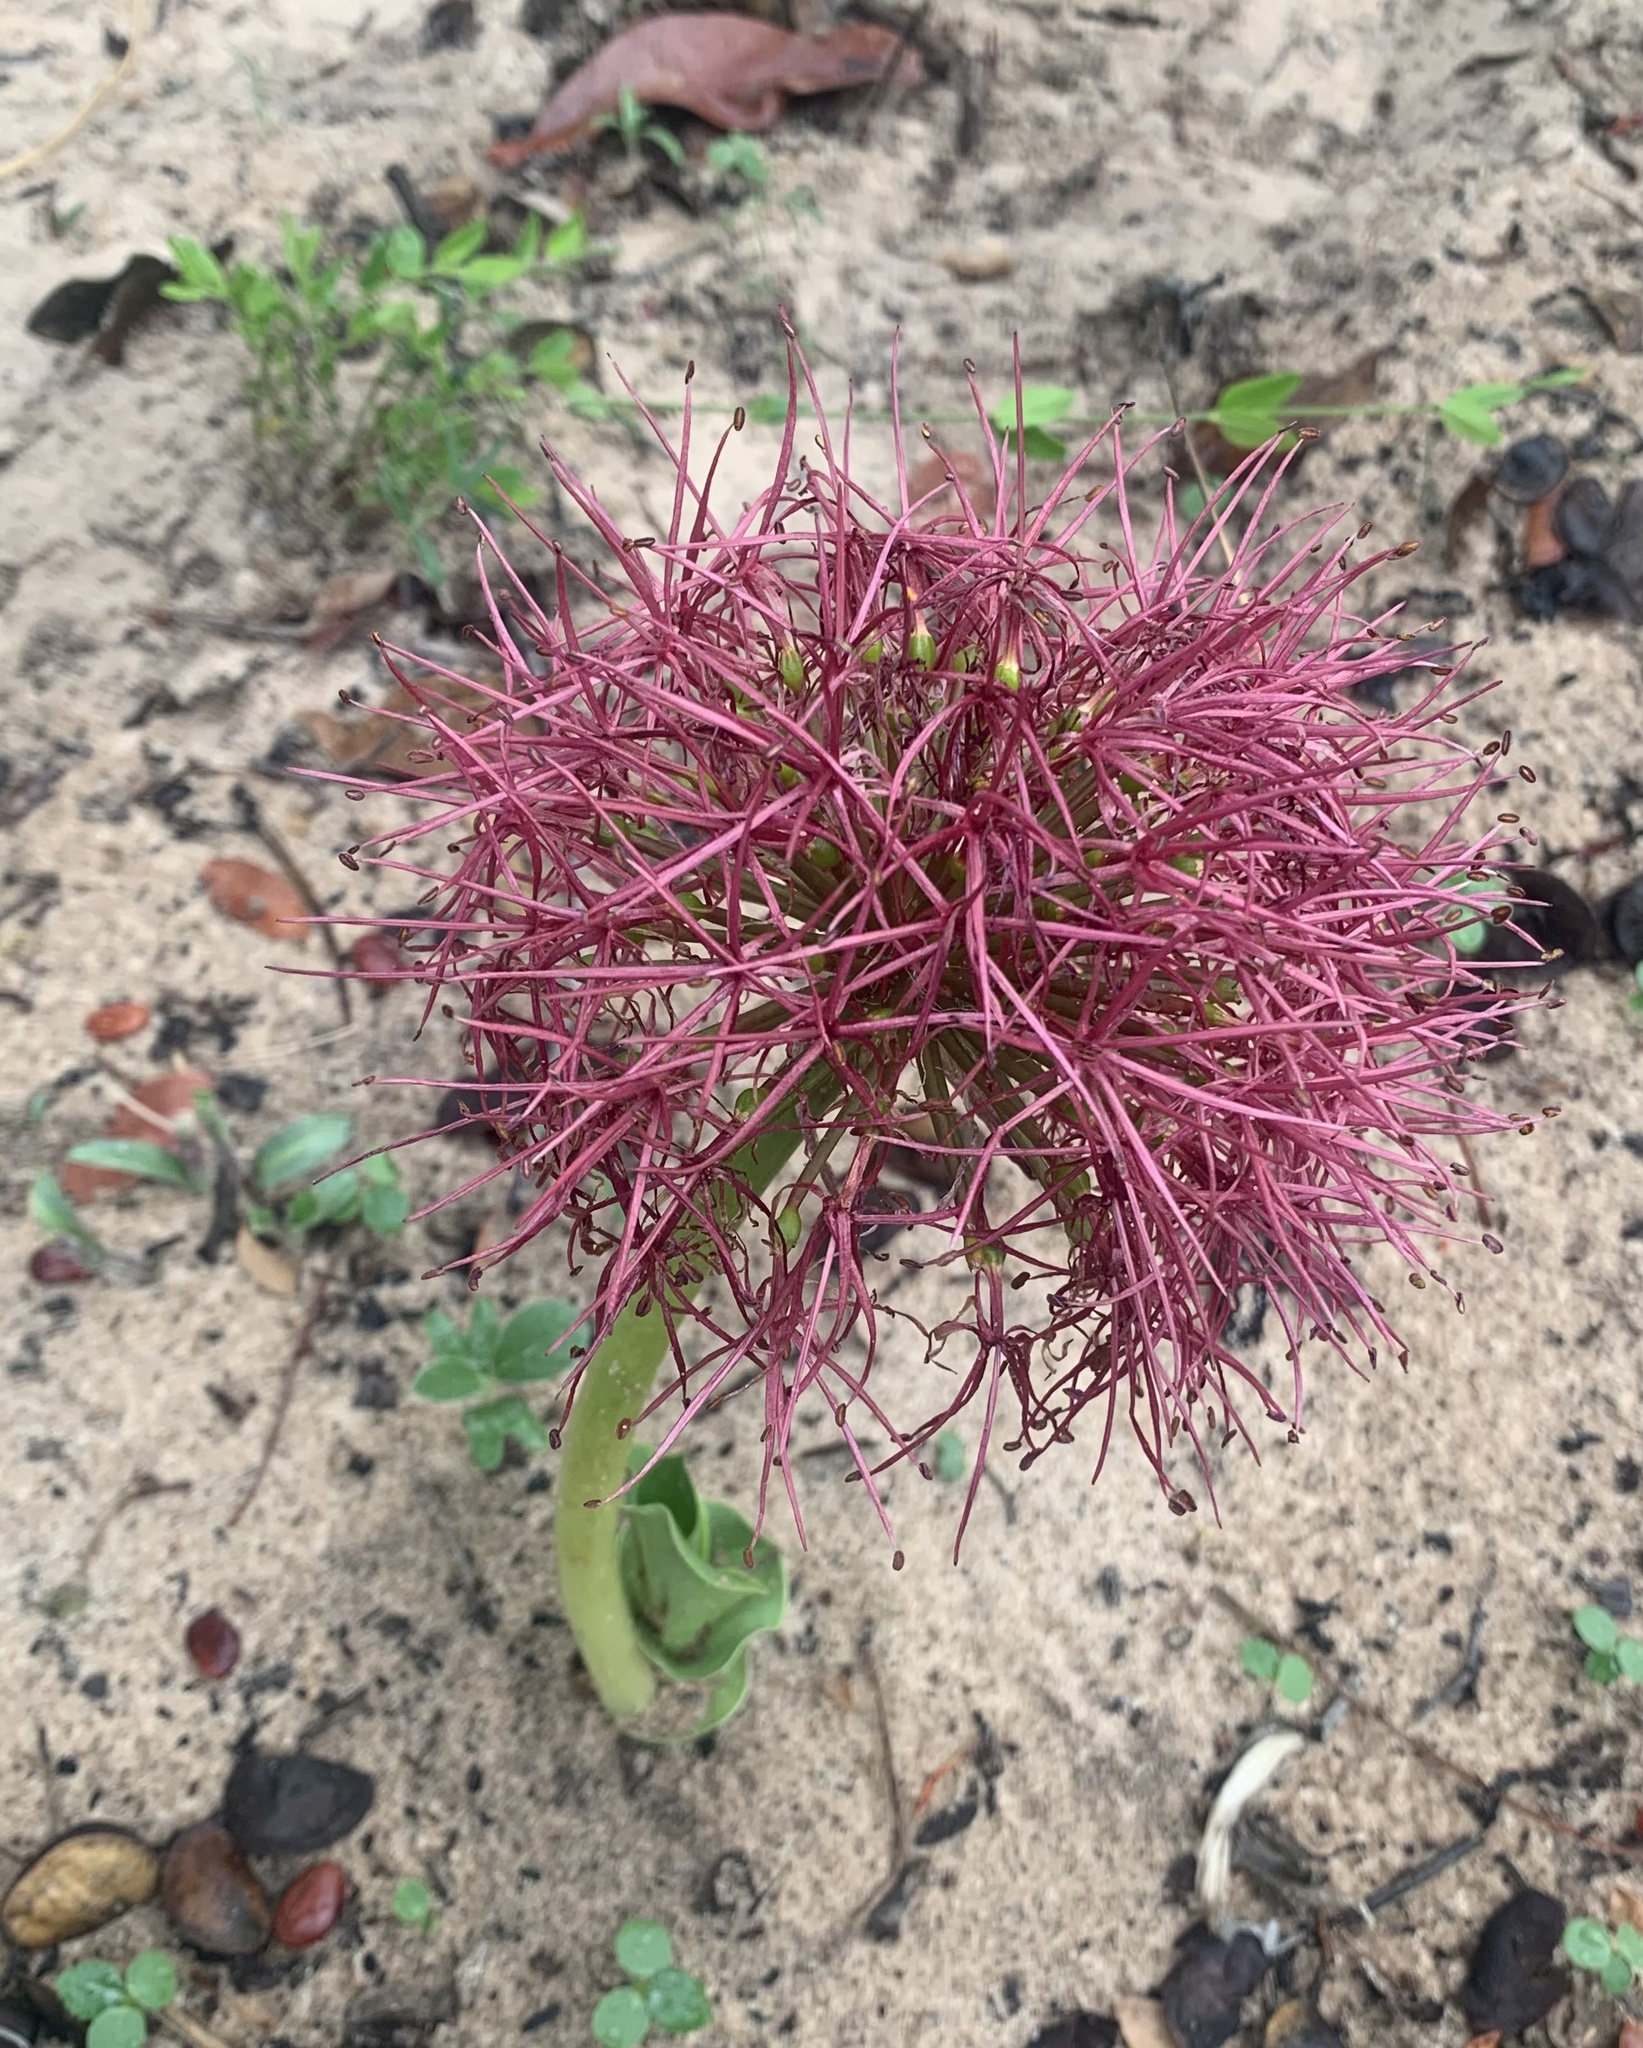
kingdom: Plantae
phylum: Tracheophyta
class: Liliopsida
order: Asparagales
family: Amaryllidaceae
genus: Scadoxus
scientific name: Scadoxus multiflorus
